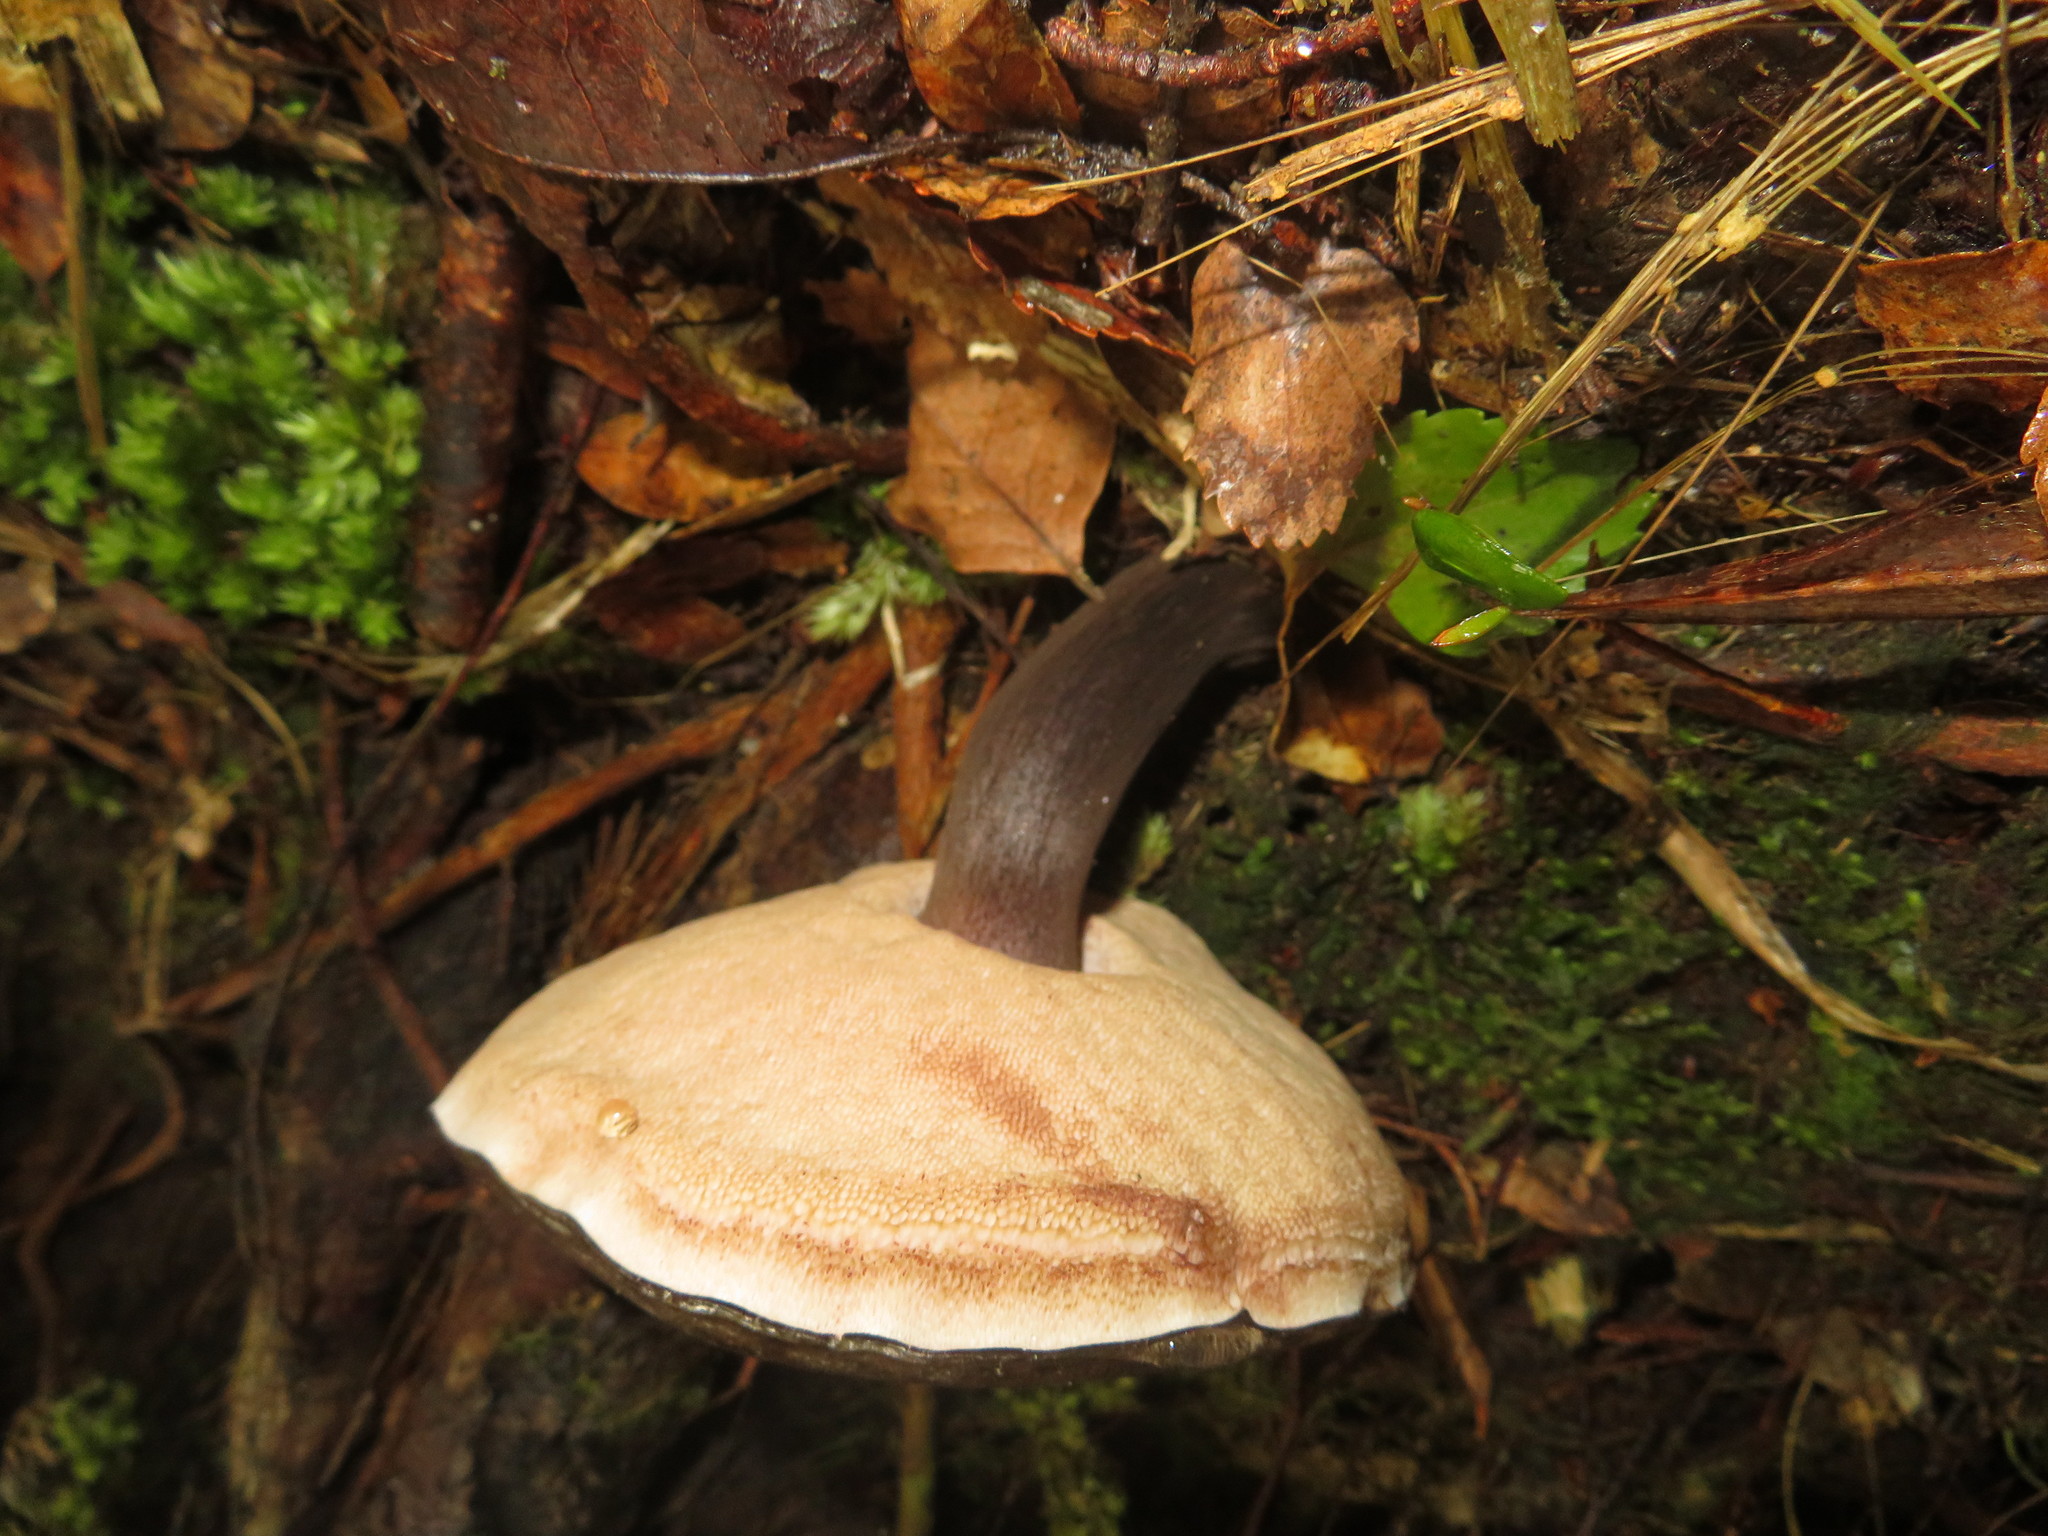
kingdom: Fungi
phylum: Basidiomycota
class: Agaricomycetes
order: Boletales
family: Boletaceae
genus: Porphyrellus
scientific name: Porphyrellus formosus
